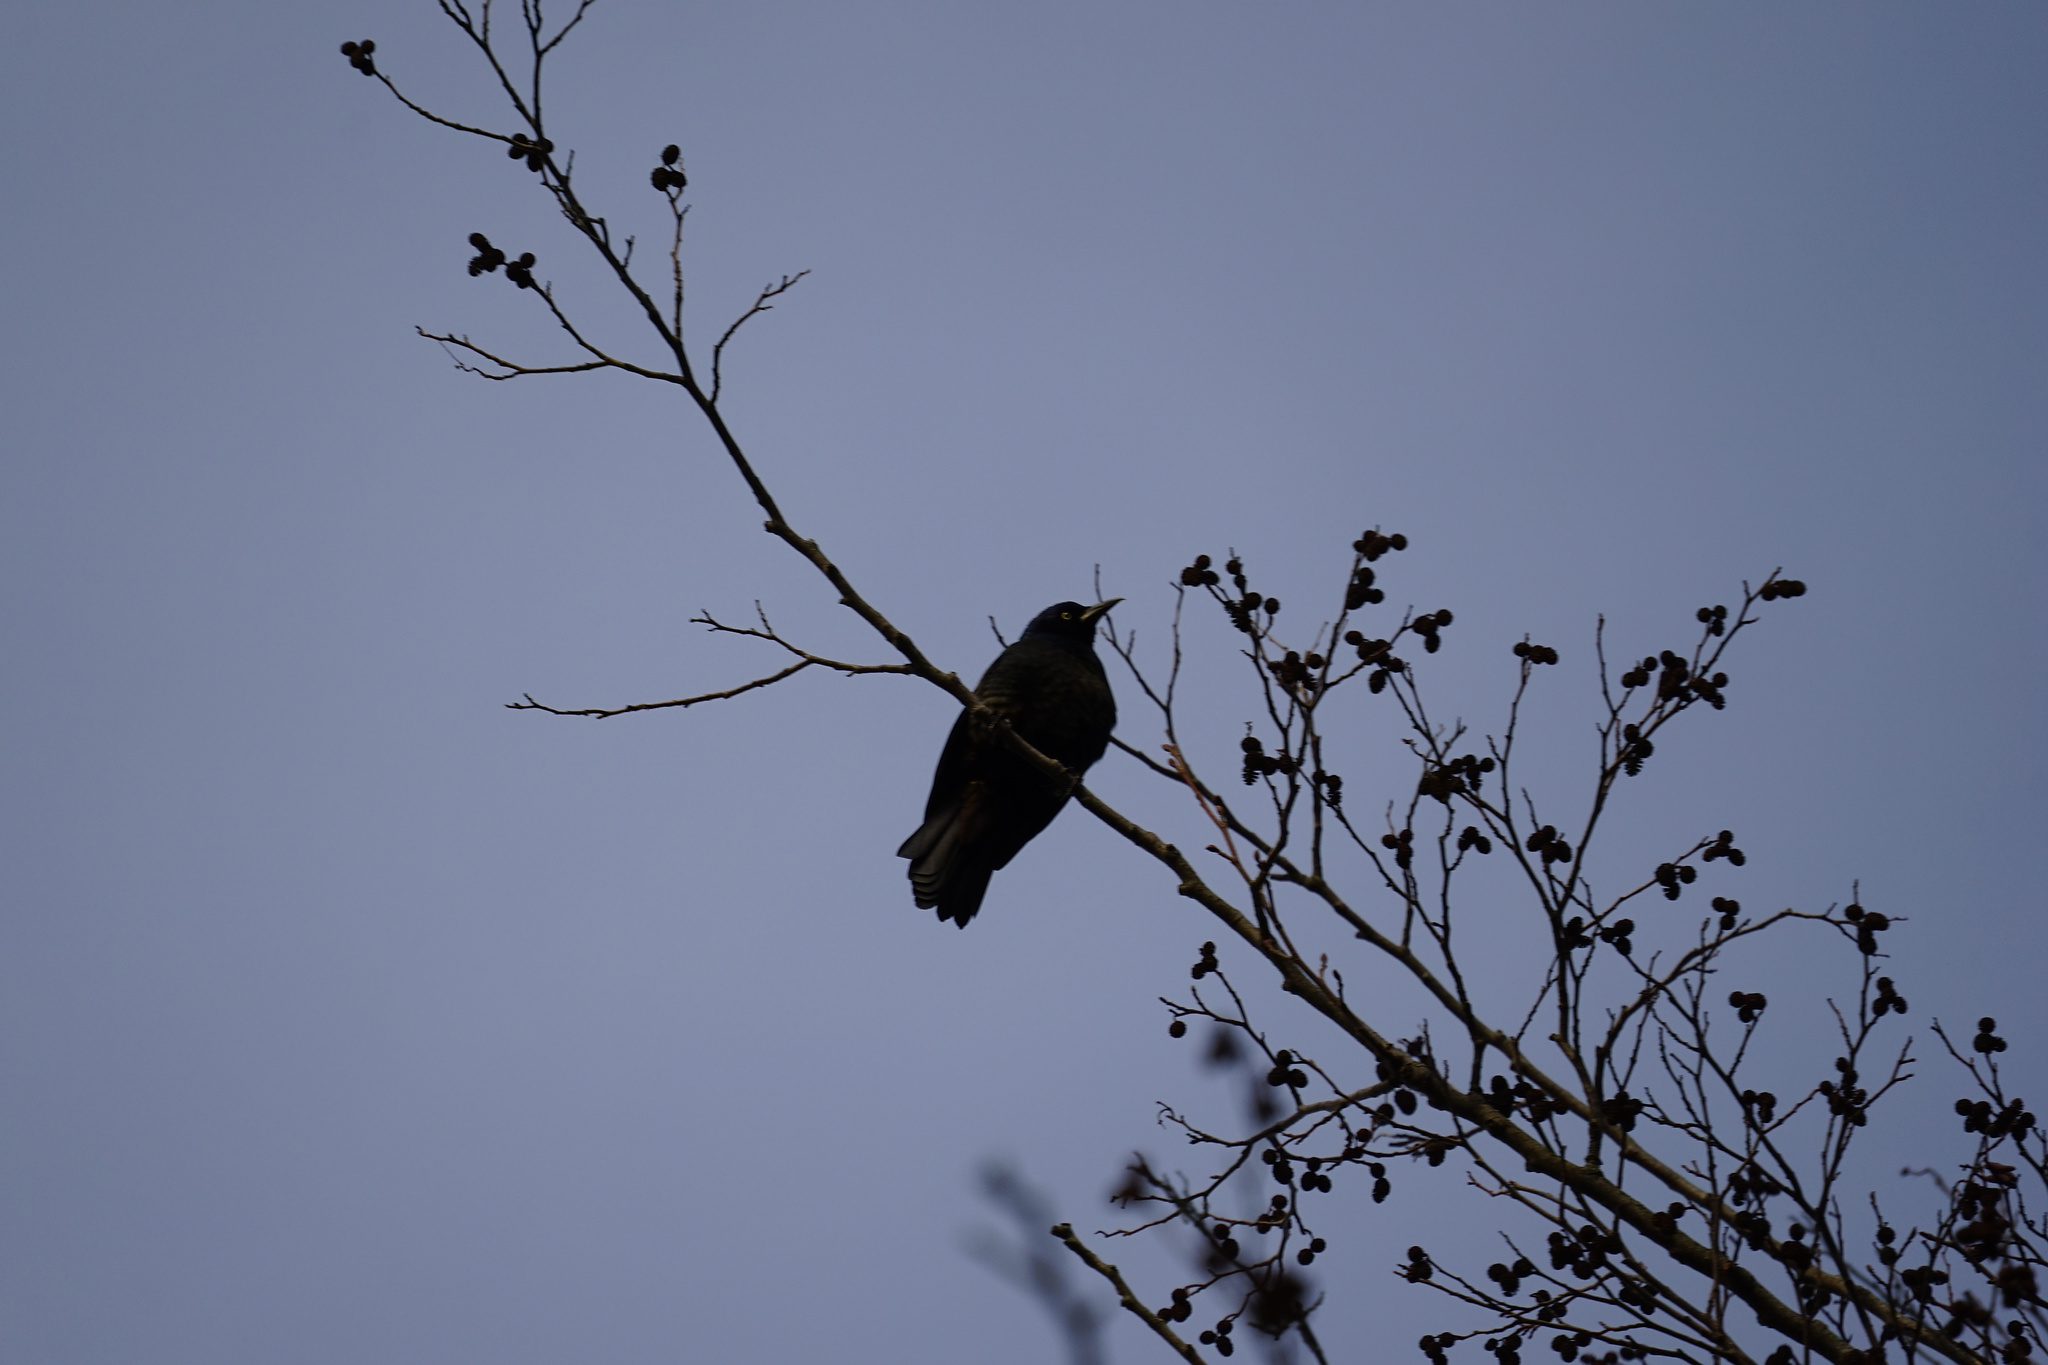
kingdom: Animalia
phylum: Chordata
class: Aves
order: Passeriformes
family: Icteridae
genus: Quiscalus
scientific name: Quiscalus quiscula
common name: Common grackle
